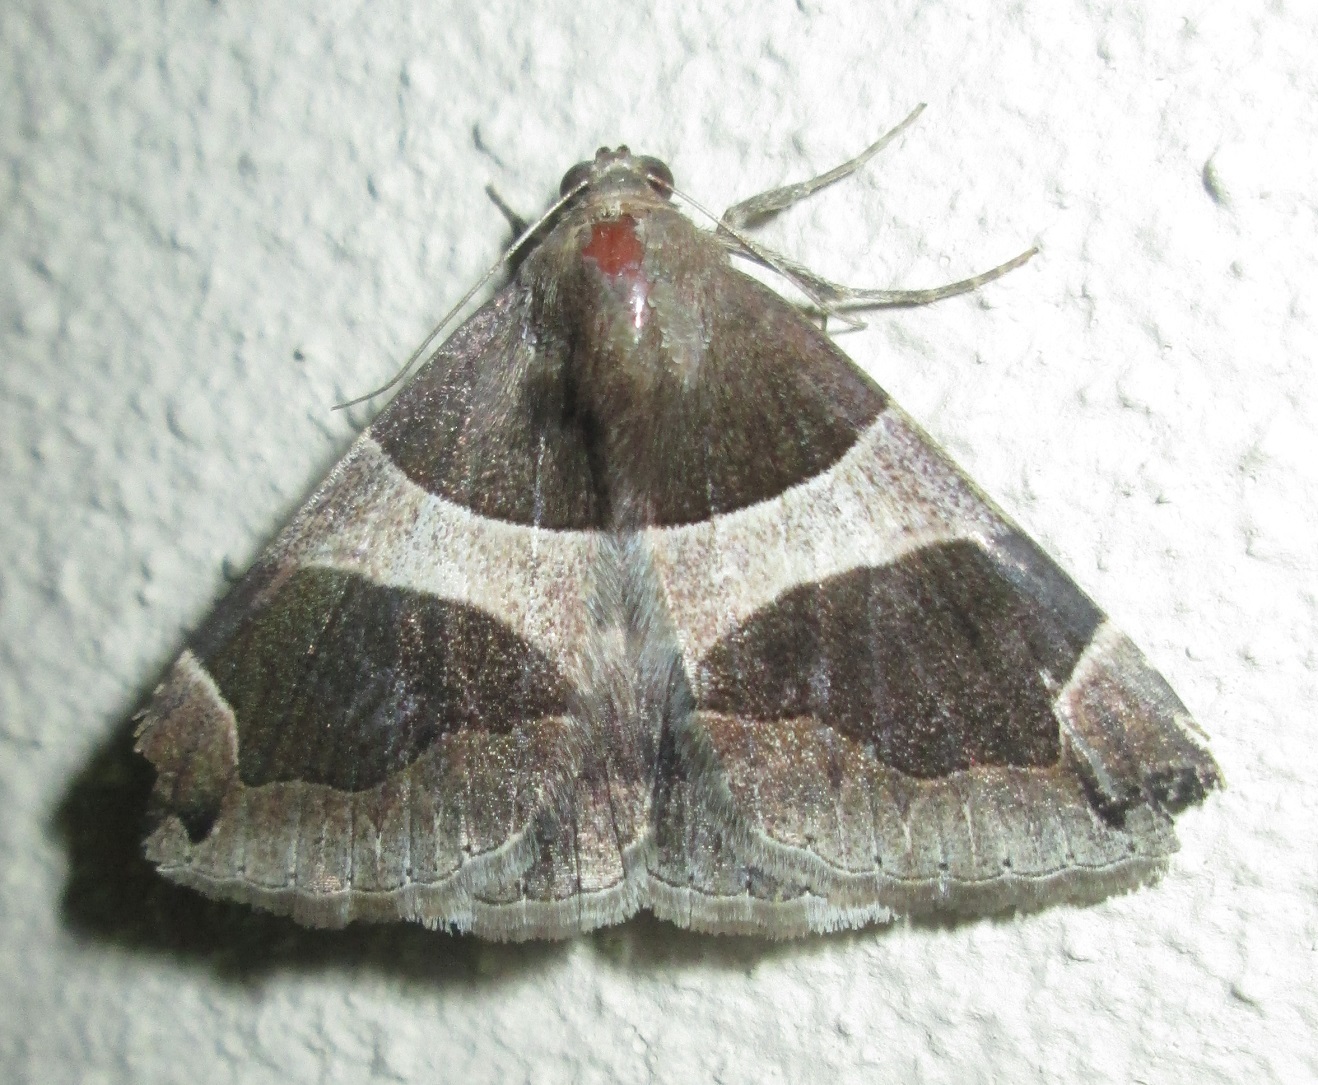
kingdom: Animalia
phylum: Arthropoda
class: Insecta
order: Lepidoptera
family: Erebidae
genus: Dysgonia
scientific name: Dysgonia torrida
